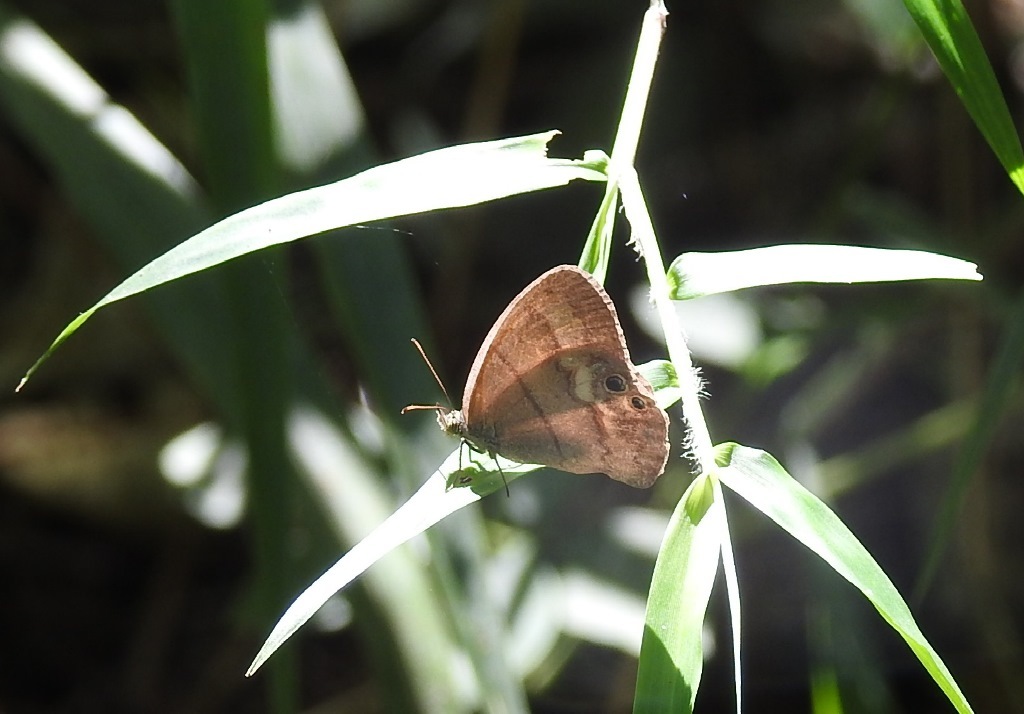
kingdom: Animalia
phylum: Arthropoda
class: Insecta
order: Lepidoptera
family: Nymphalidae
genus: Euptychia
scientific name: Euptychia
